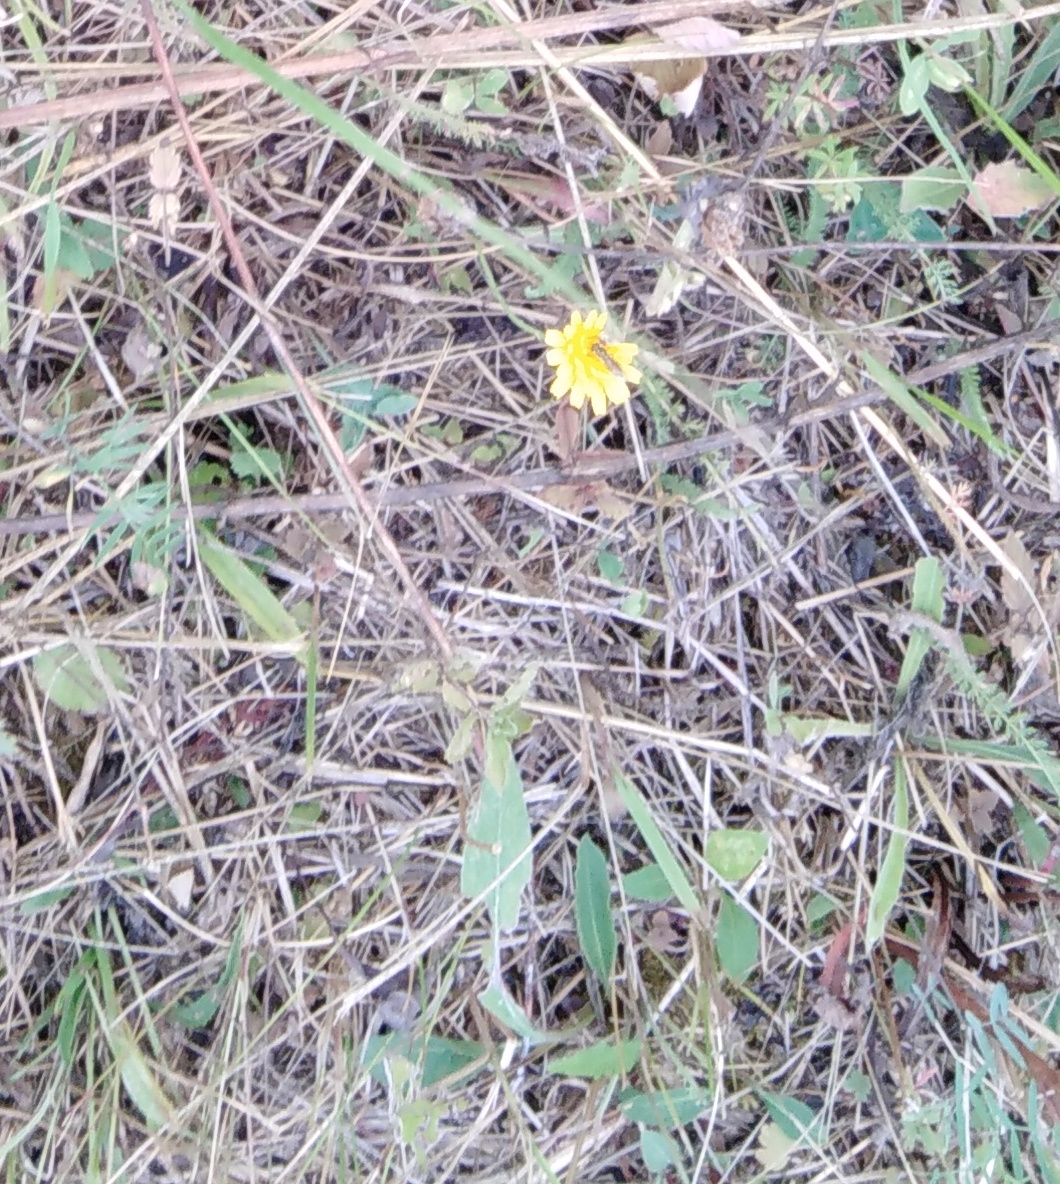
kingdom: Plantae
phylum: Tracheophyta
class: Magnoliopsida
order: Asterales
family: Asteraceae
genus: Scorzoneroides
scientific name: Scorzoneroides autumnalis
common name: Autumn hawkbit
